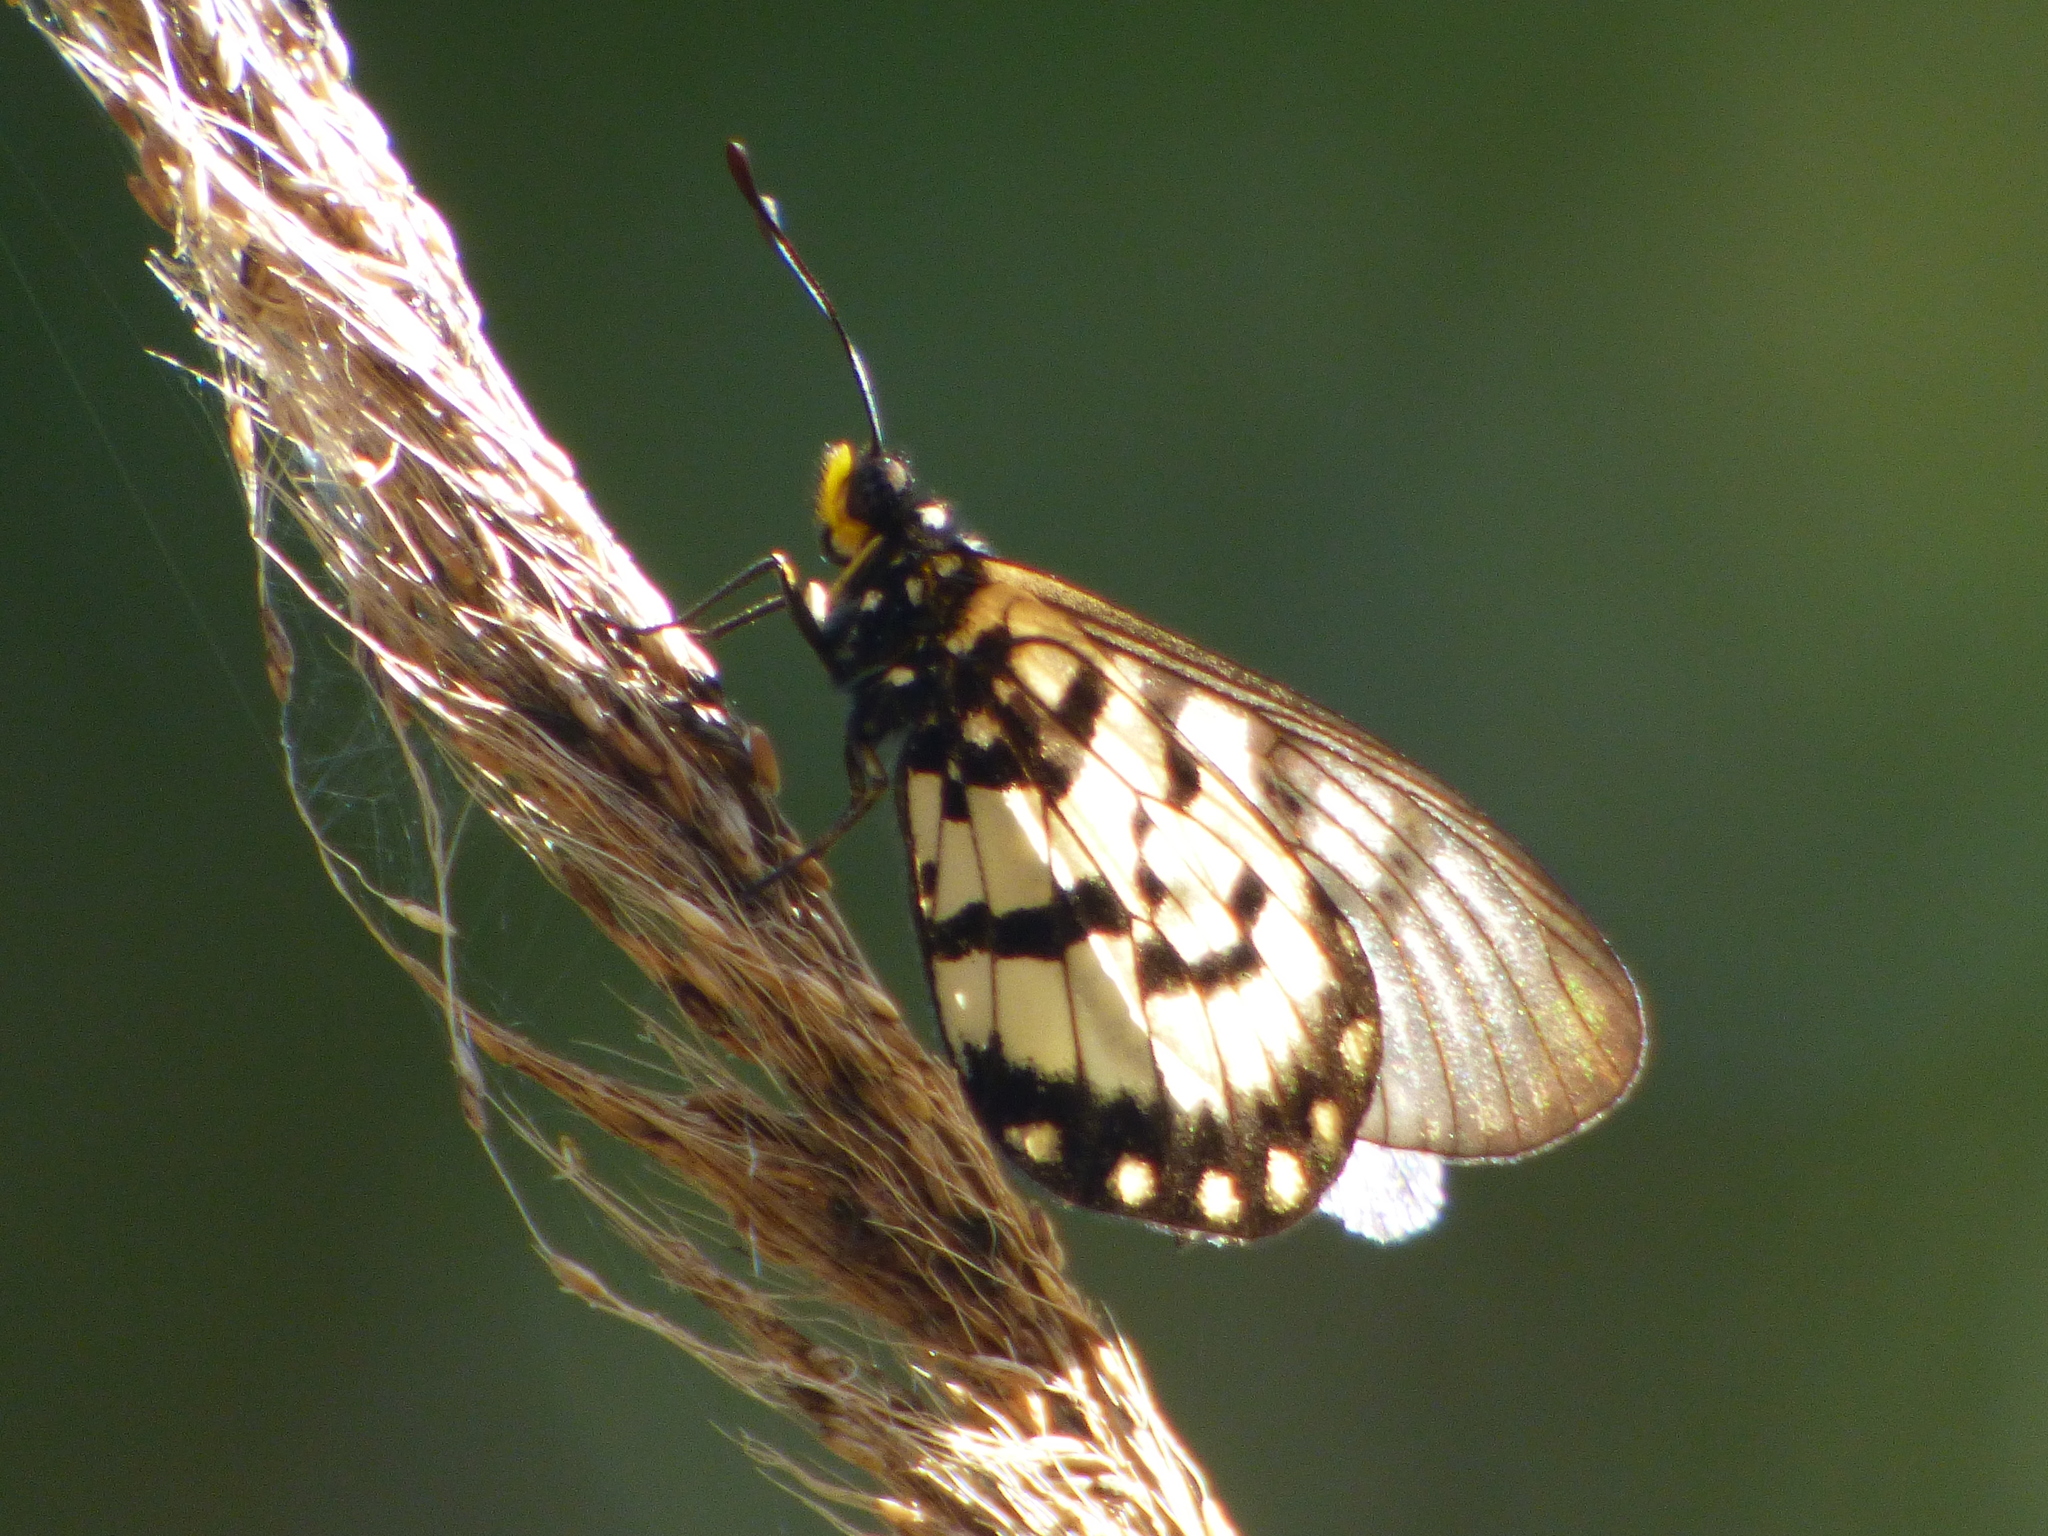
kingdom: Animalia
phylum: Arthropoda
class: Insecta
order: Lepidoptera
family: Nymphalidae
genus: Acraea
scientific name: Acraea andromacha
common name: Glasswing
